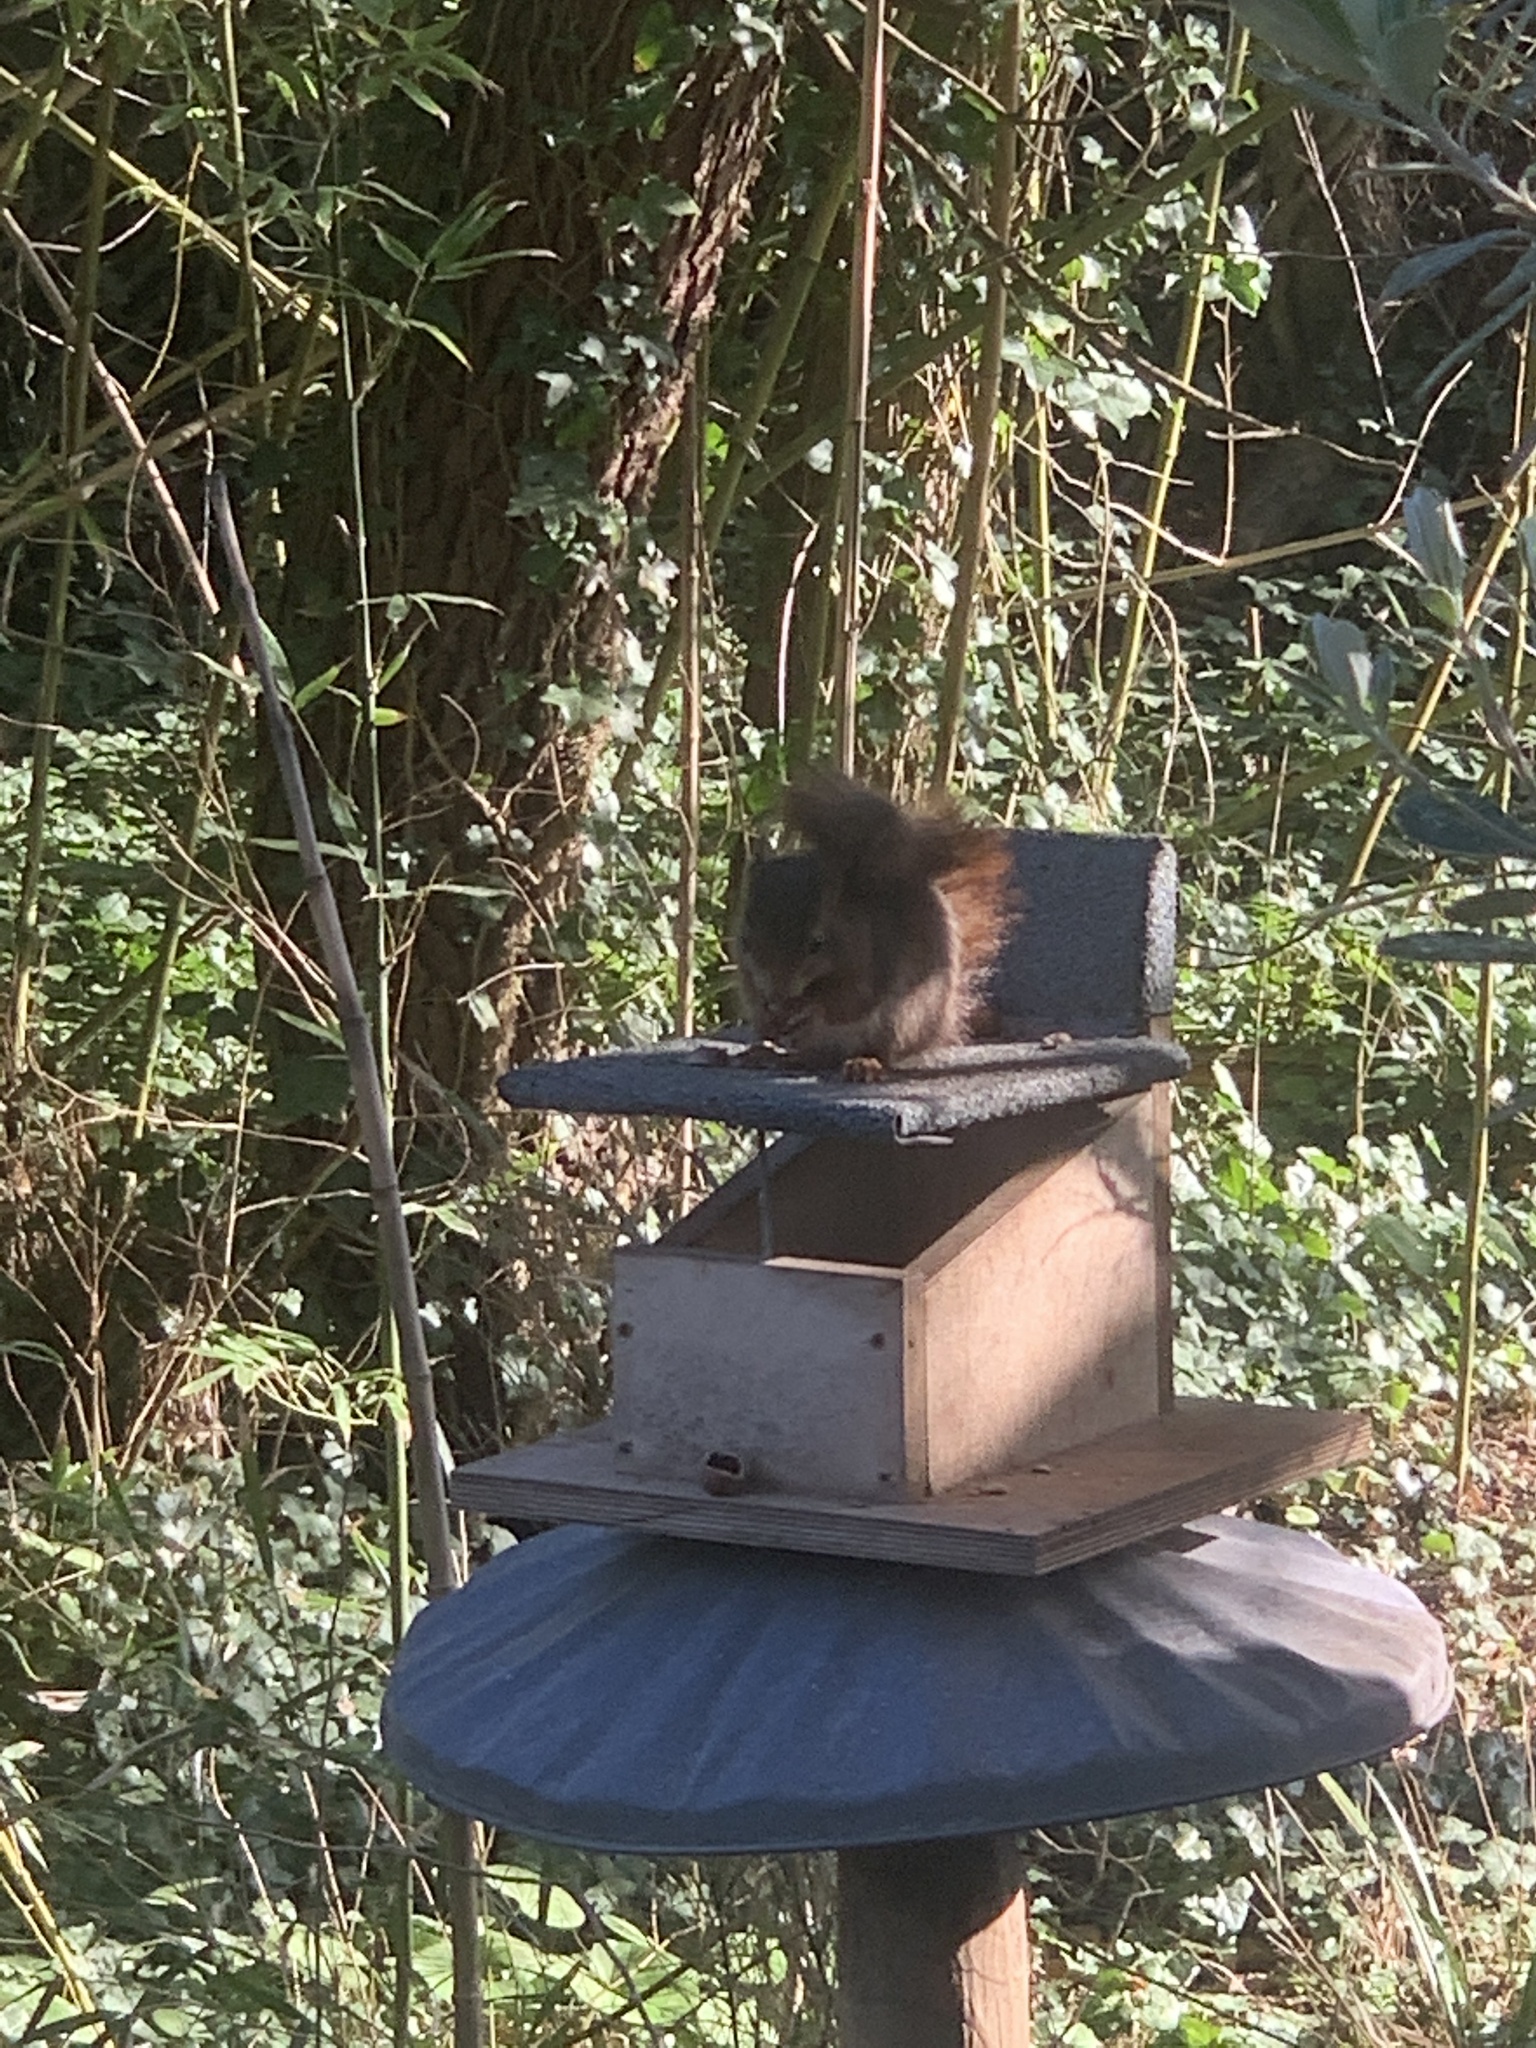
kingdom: Animalia
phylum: Chordata
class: Mammalia
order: Rodentia
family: Sciuridae
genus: Sciurus
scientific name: Sciurus vulgaris
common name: Eurasian red squirrel
